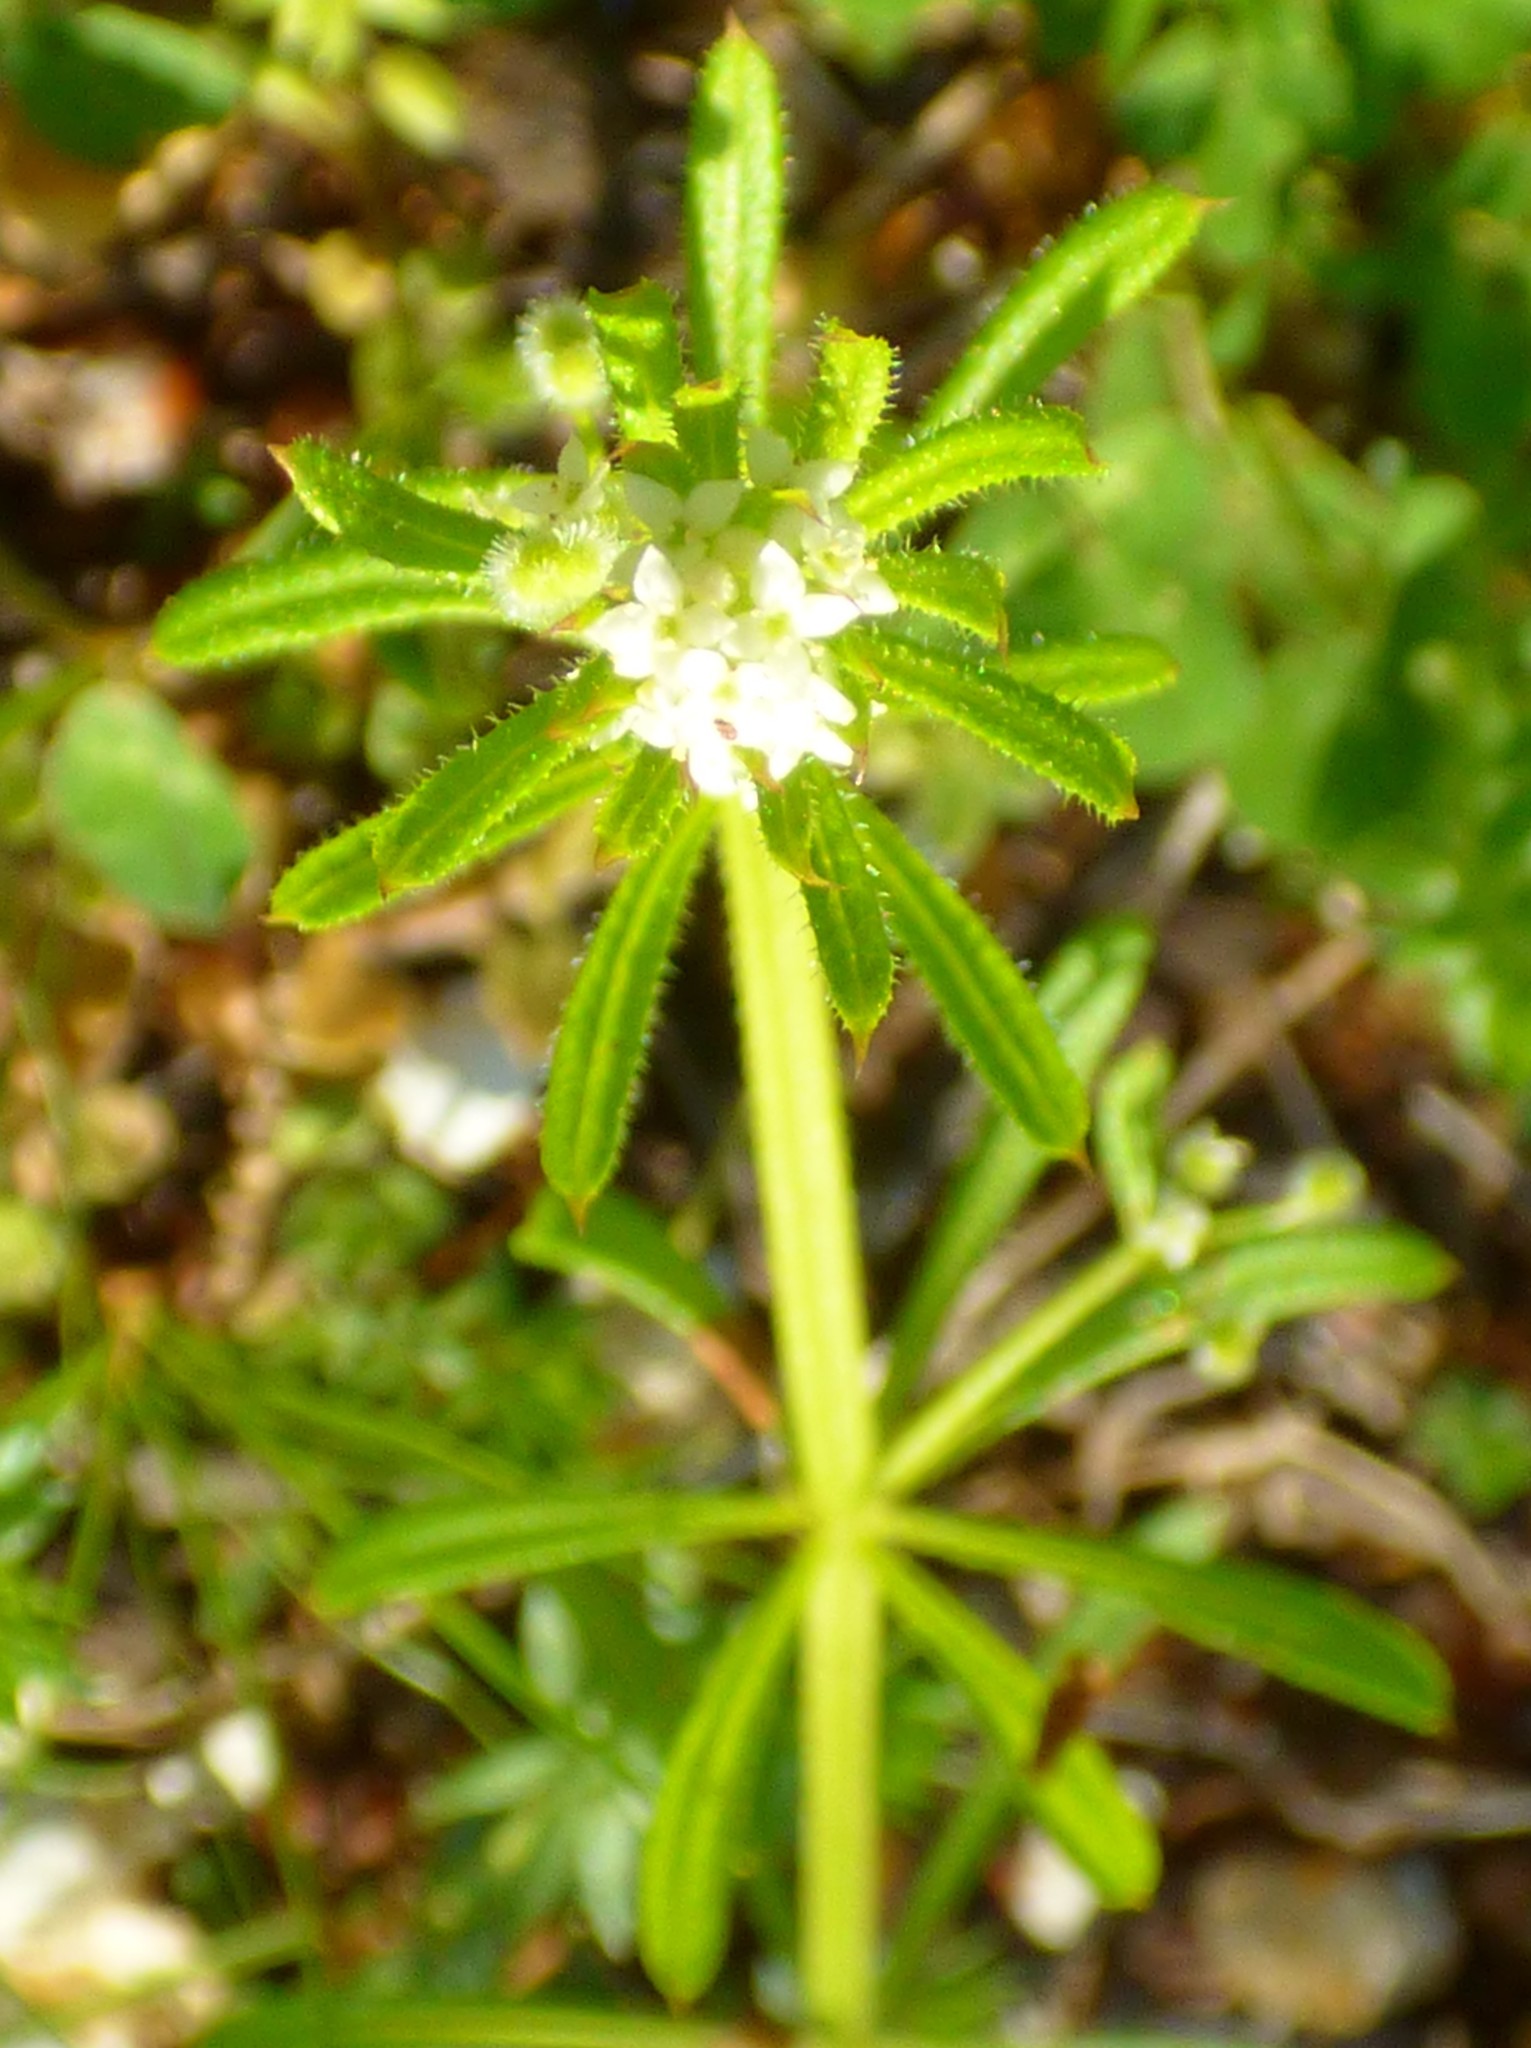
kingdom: Plantae
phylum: Tracheophyta
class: Magnoliopsida
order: Gentianales
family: Rubiaceae
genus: Galium
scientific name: Galium aparine
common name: Cleavers
